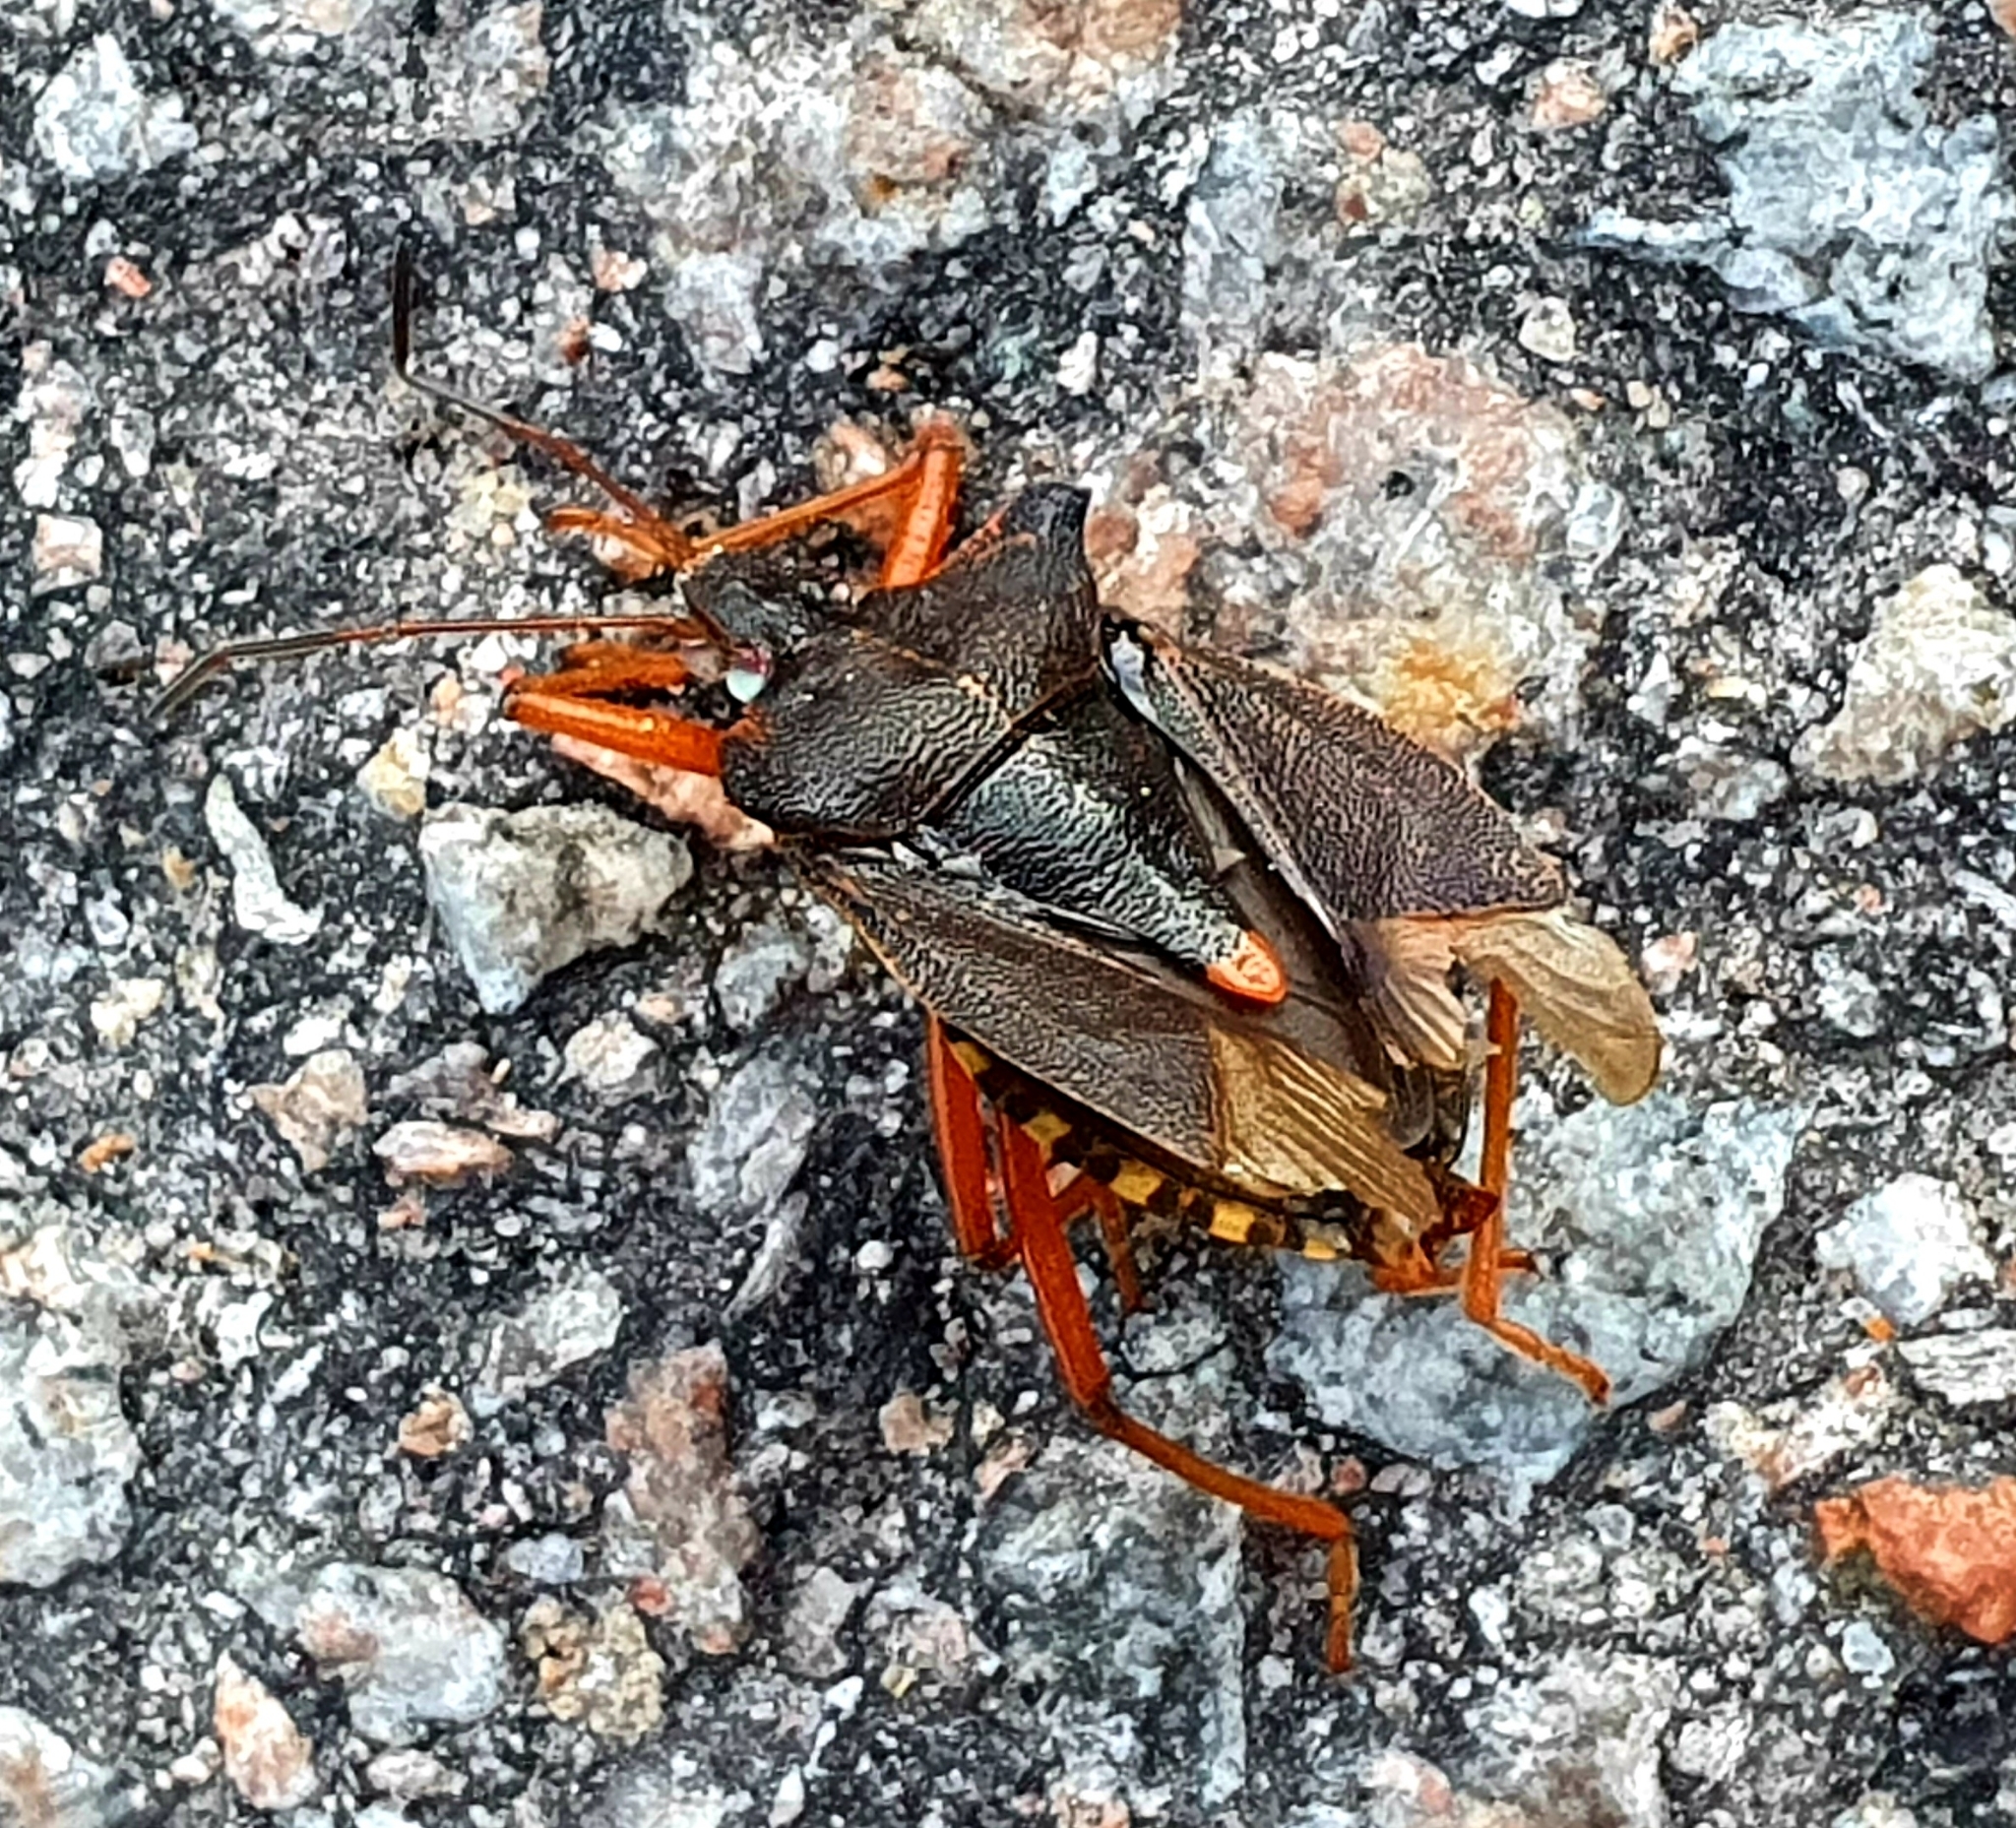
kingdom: Animalia
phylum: Arthropoda
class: Insecta
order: Hemiptera
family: Pentatomidae
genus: Pentatoma
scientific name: Pentatoma rufipes
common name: Forest bug
